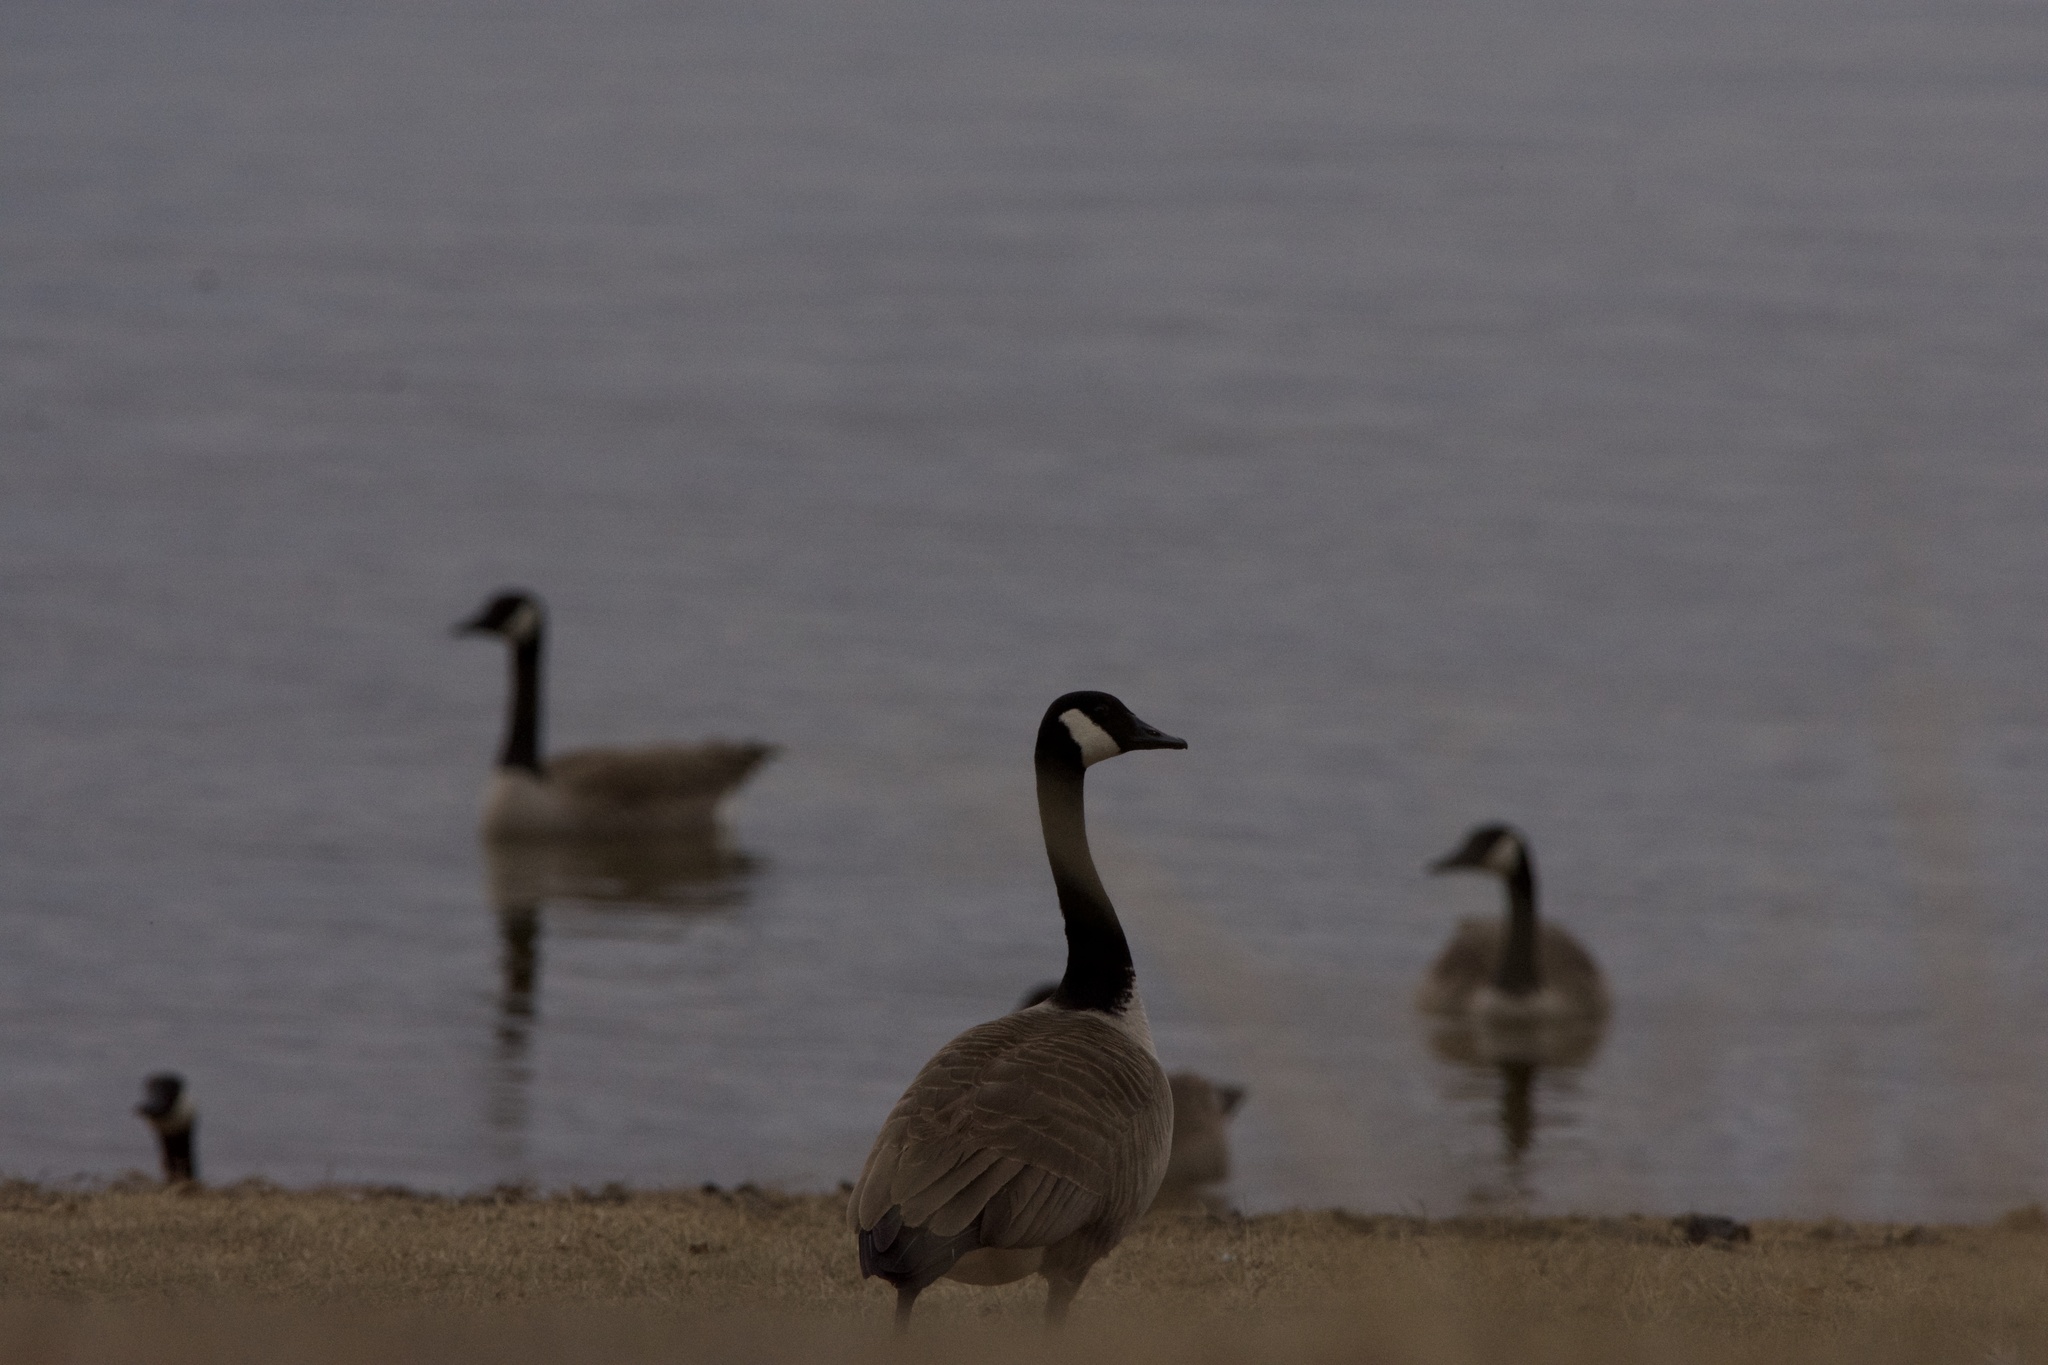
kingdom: Animalia
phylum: Chordata
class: Aves
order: Anseriformes
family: Anatidae
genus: Branta
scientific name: Branta canadensis
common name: Canada goose
